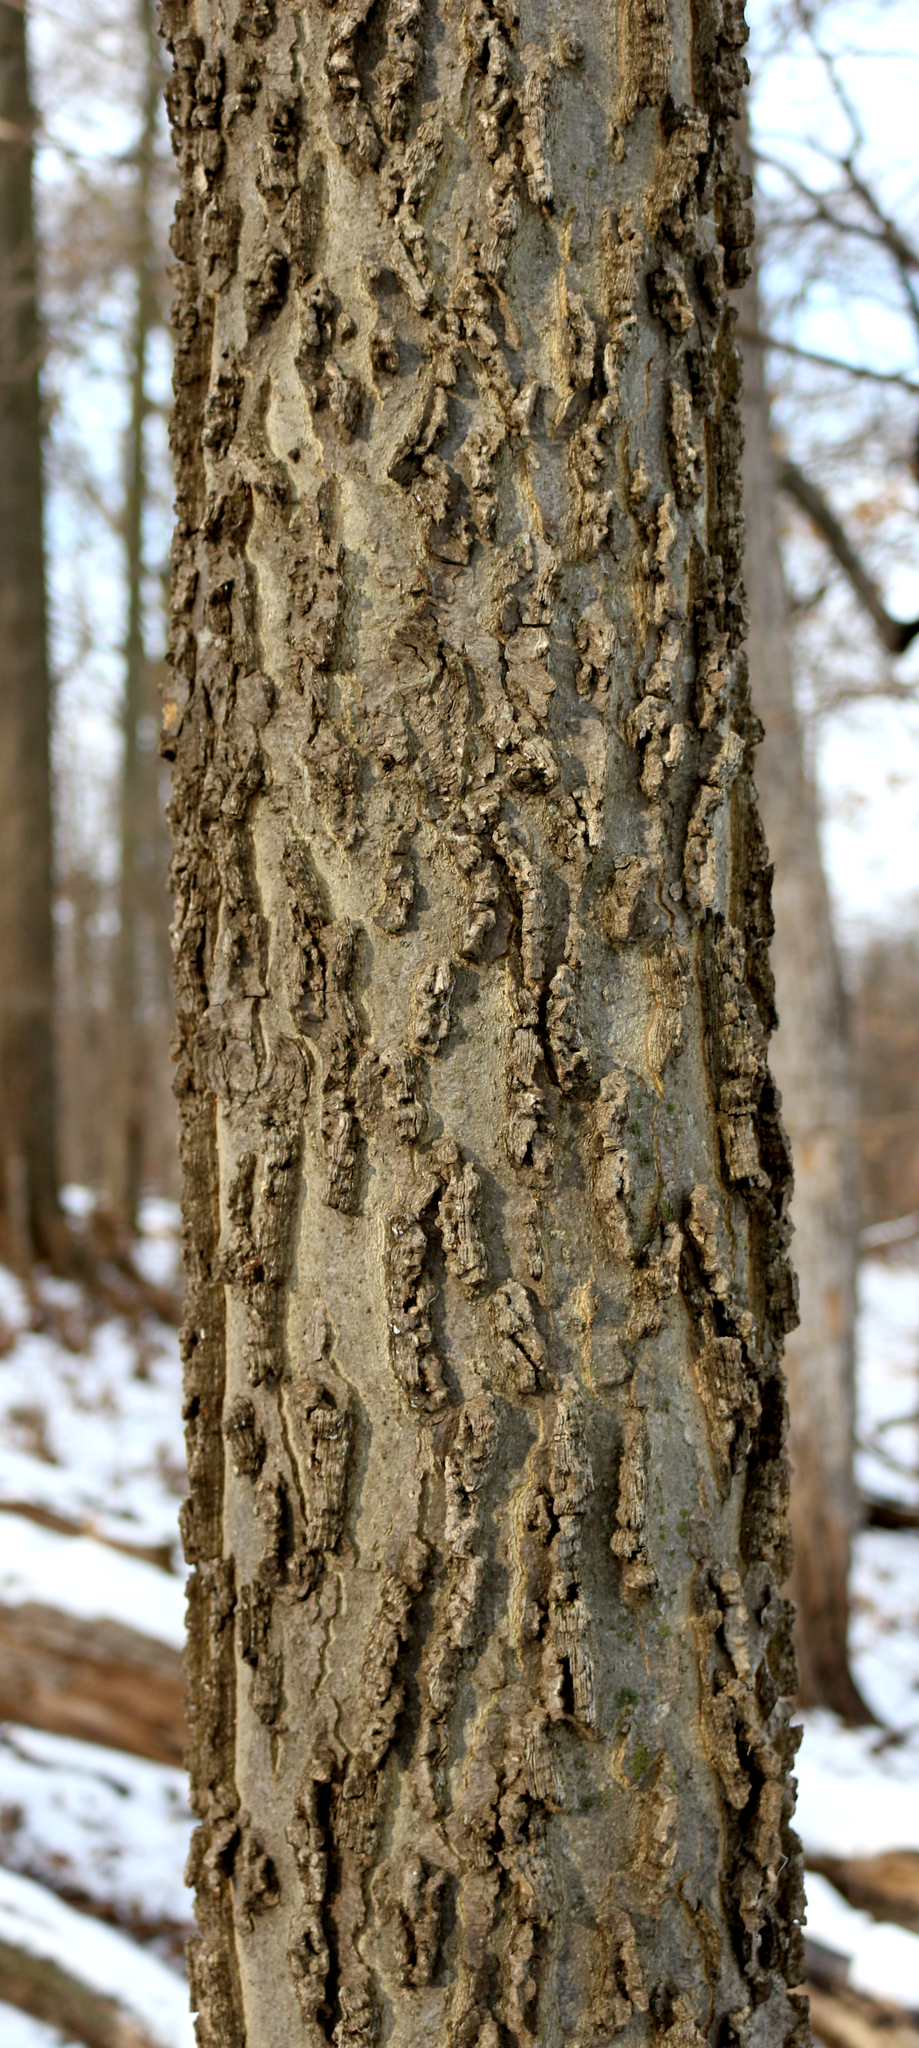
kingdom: Plantae
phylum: Tracheophyta
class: Magnoliopsida
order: Rosales
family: Cannabaceae
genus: Celtis
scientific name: Celtis occidentalis
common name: Common hackberry
